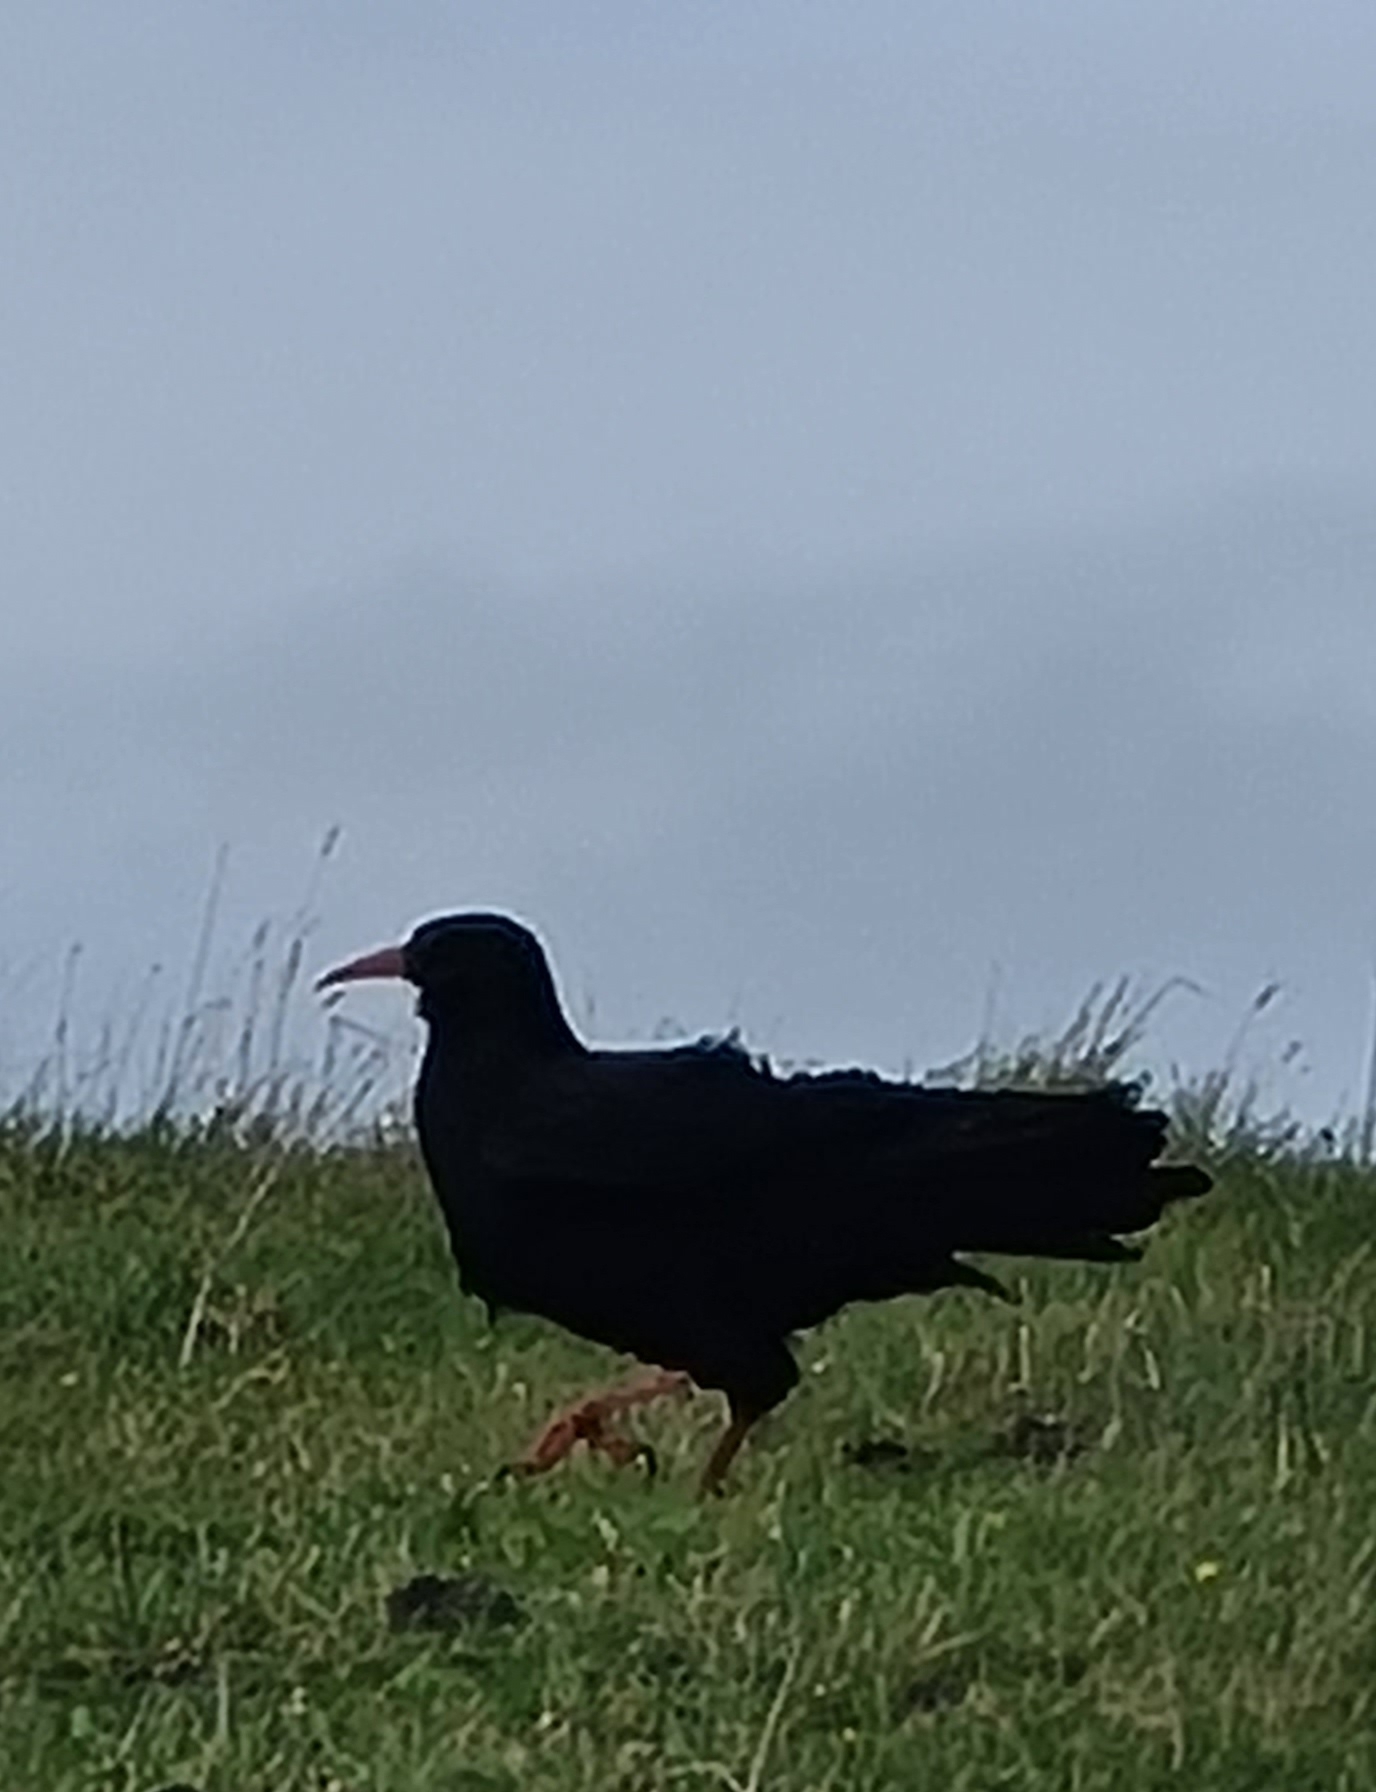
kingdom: Animalia
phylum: Chordata
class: Aves
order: Passeriformes
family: Corvidae
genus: Pyrrhocorax
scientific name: Pyrrhocorax pyrrhocorax
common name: Red-billed chough
